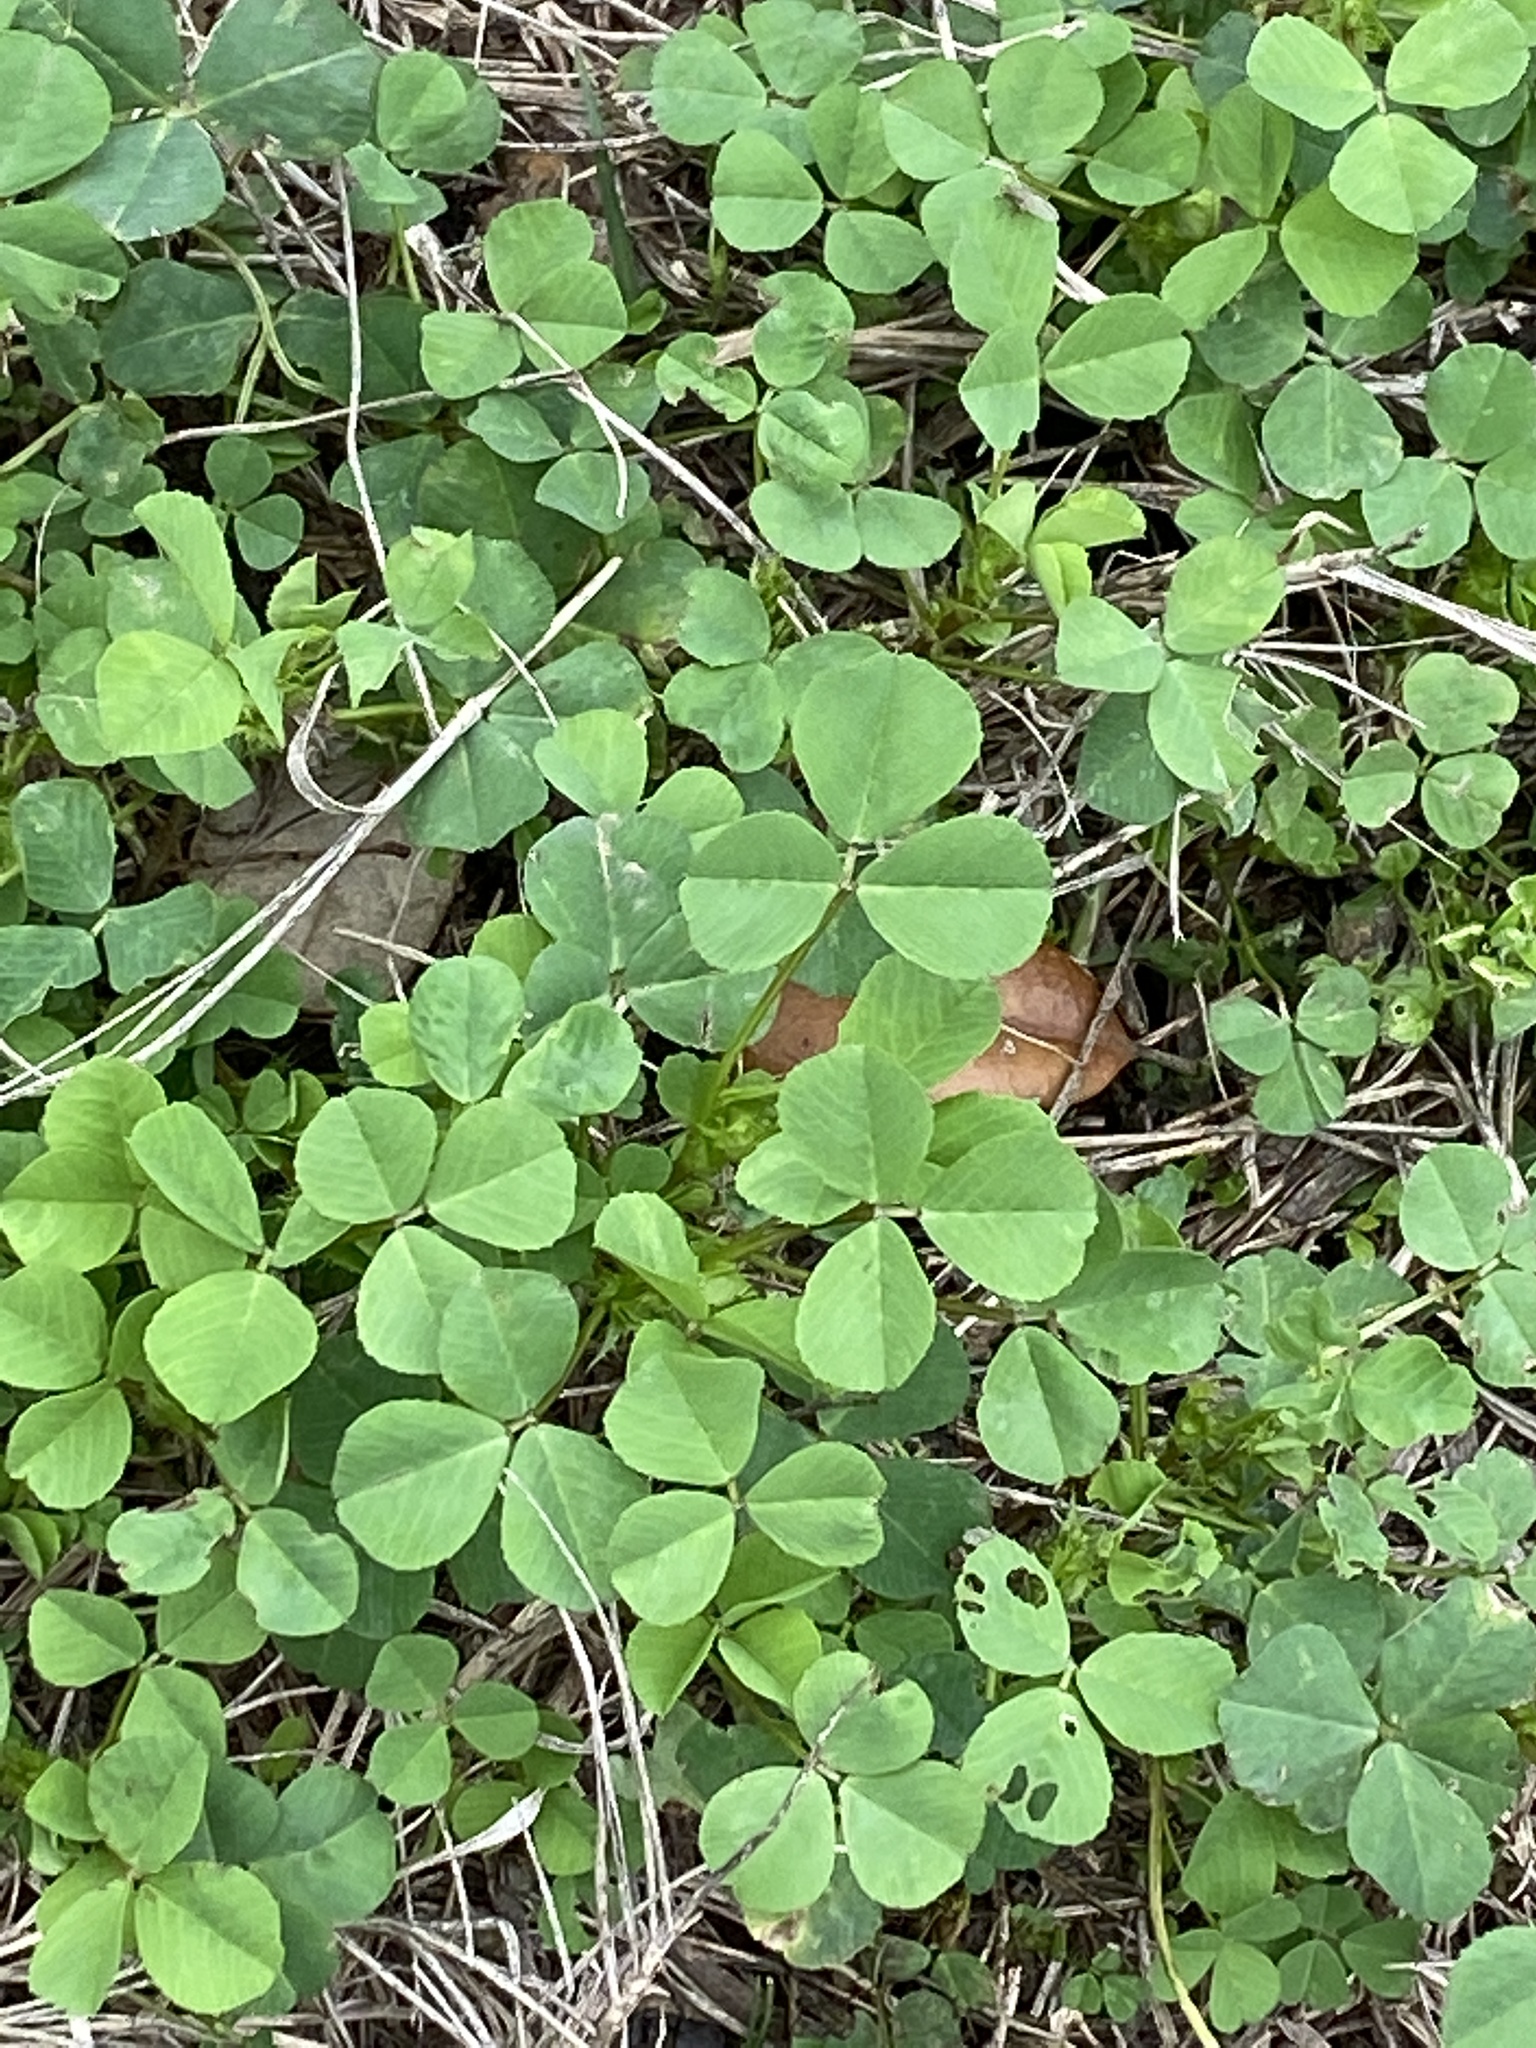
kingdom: Plantae
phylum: Tracheophyta
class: Magnoliopsida
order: Fabales
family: Fabaceae
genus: Medicago
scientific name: Medicago polymorpha
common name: Burclover
